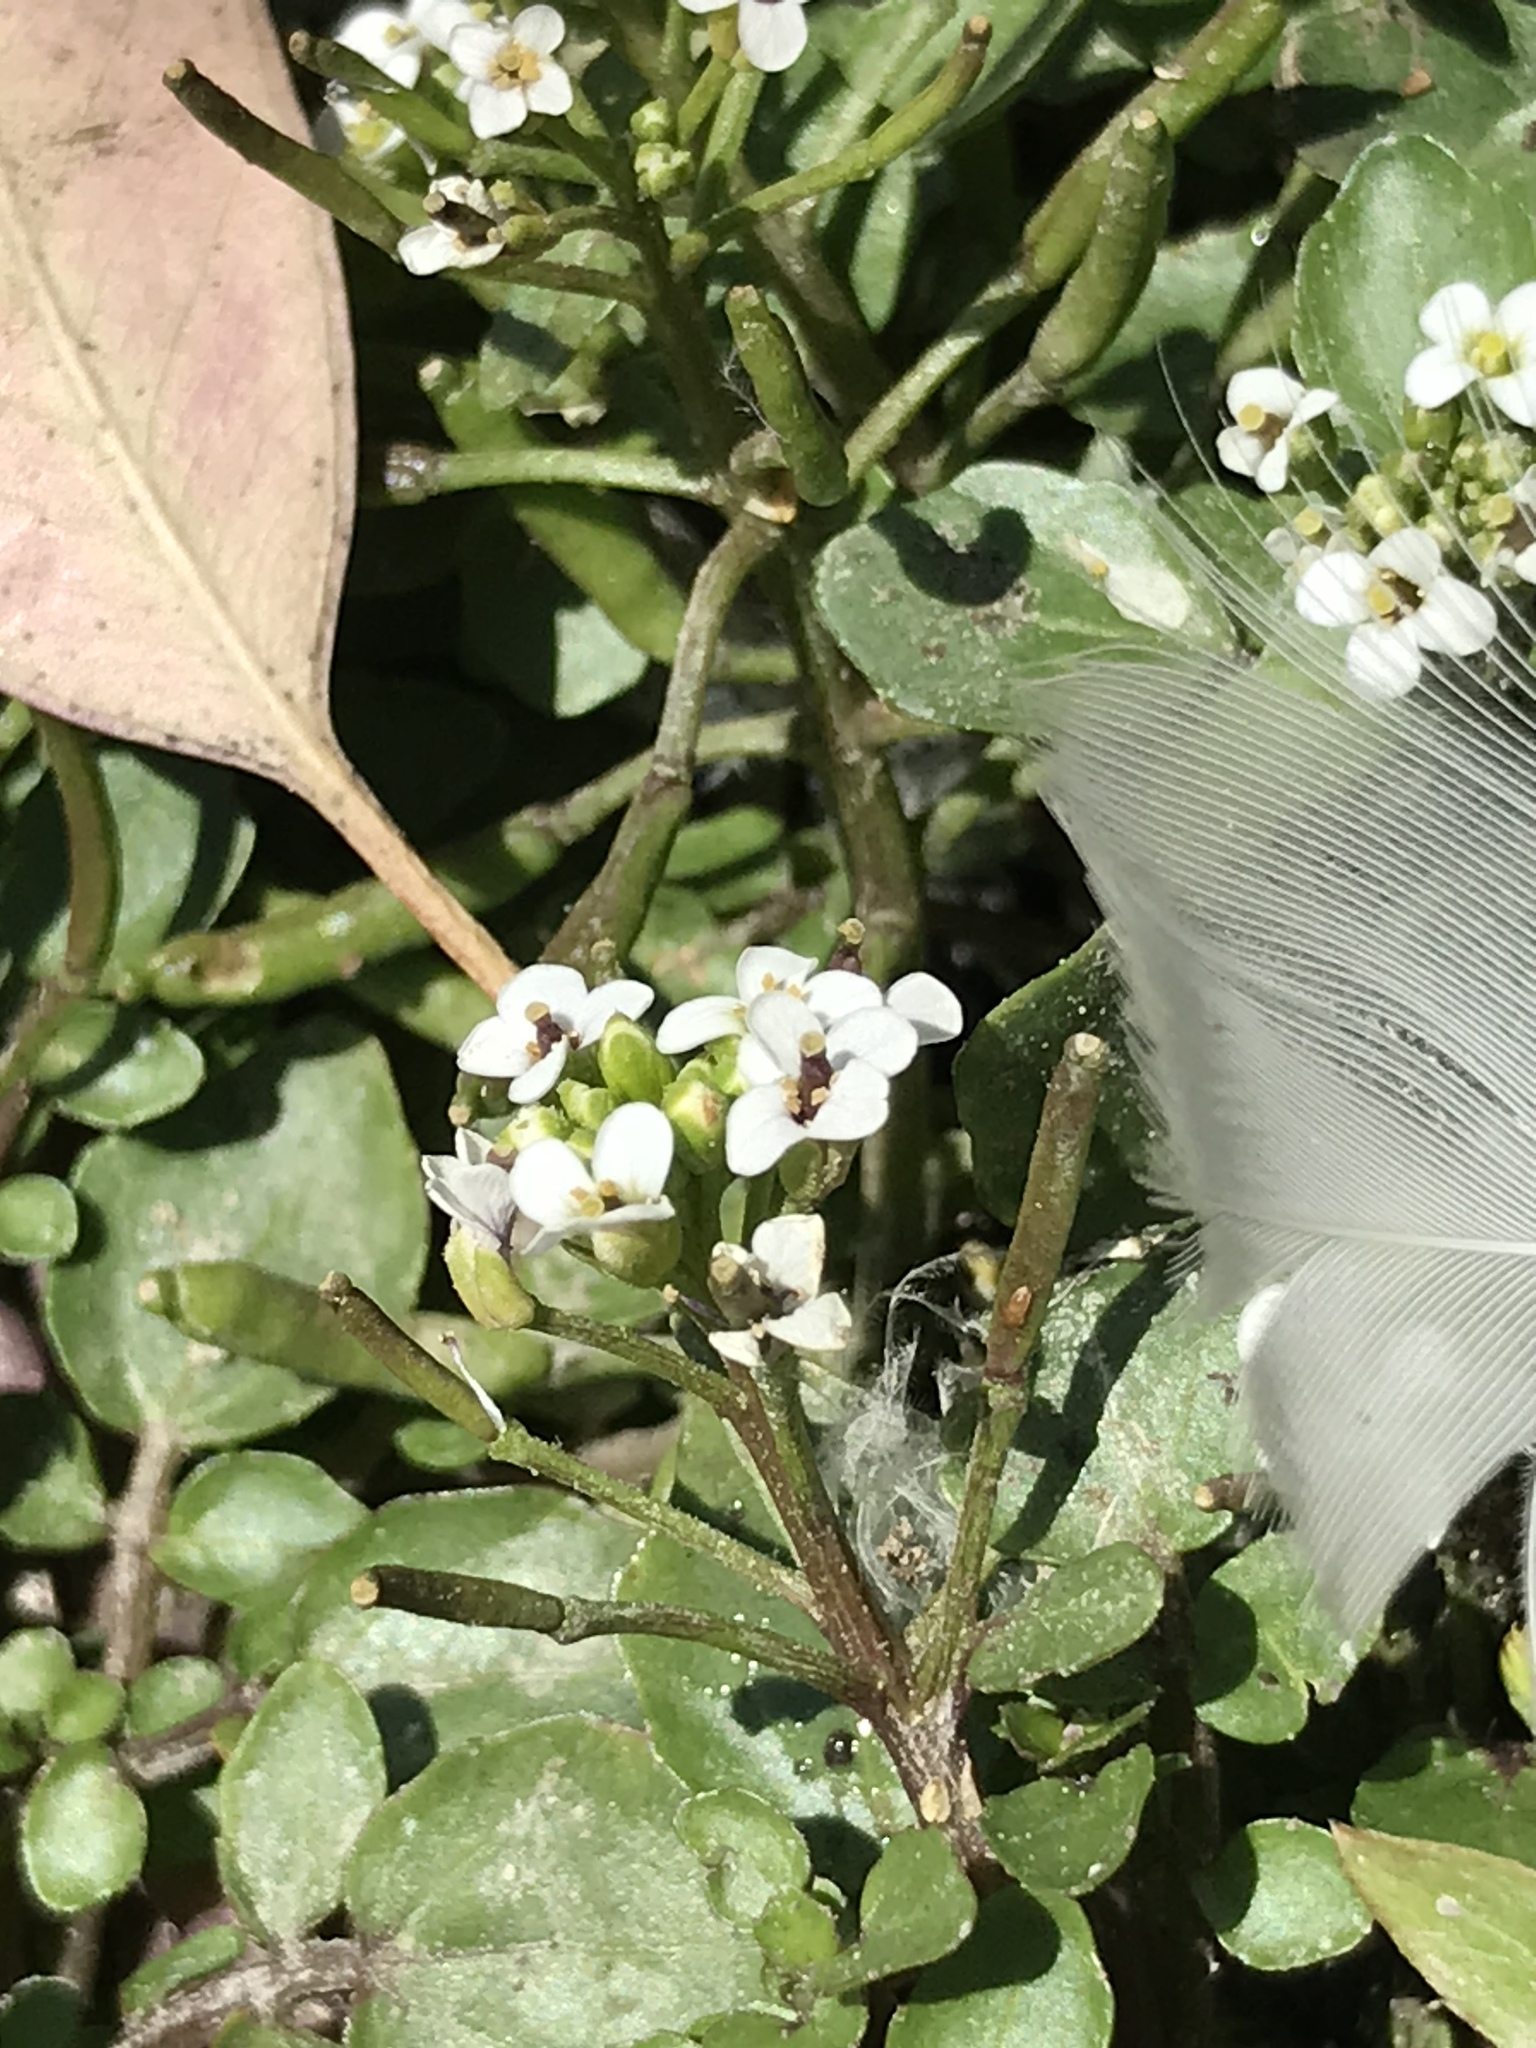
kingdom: Plantae
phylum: Tracheophyta
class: Magnoliopsida
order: Brassicales
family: Brassicaceae
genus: Nasturtium
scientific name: Nasturtium officinale
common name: Watercress
